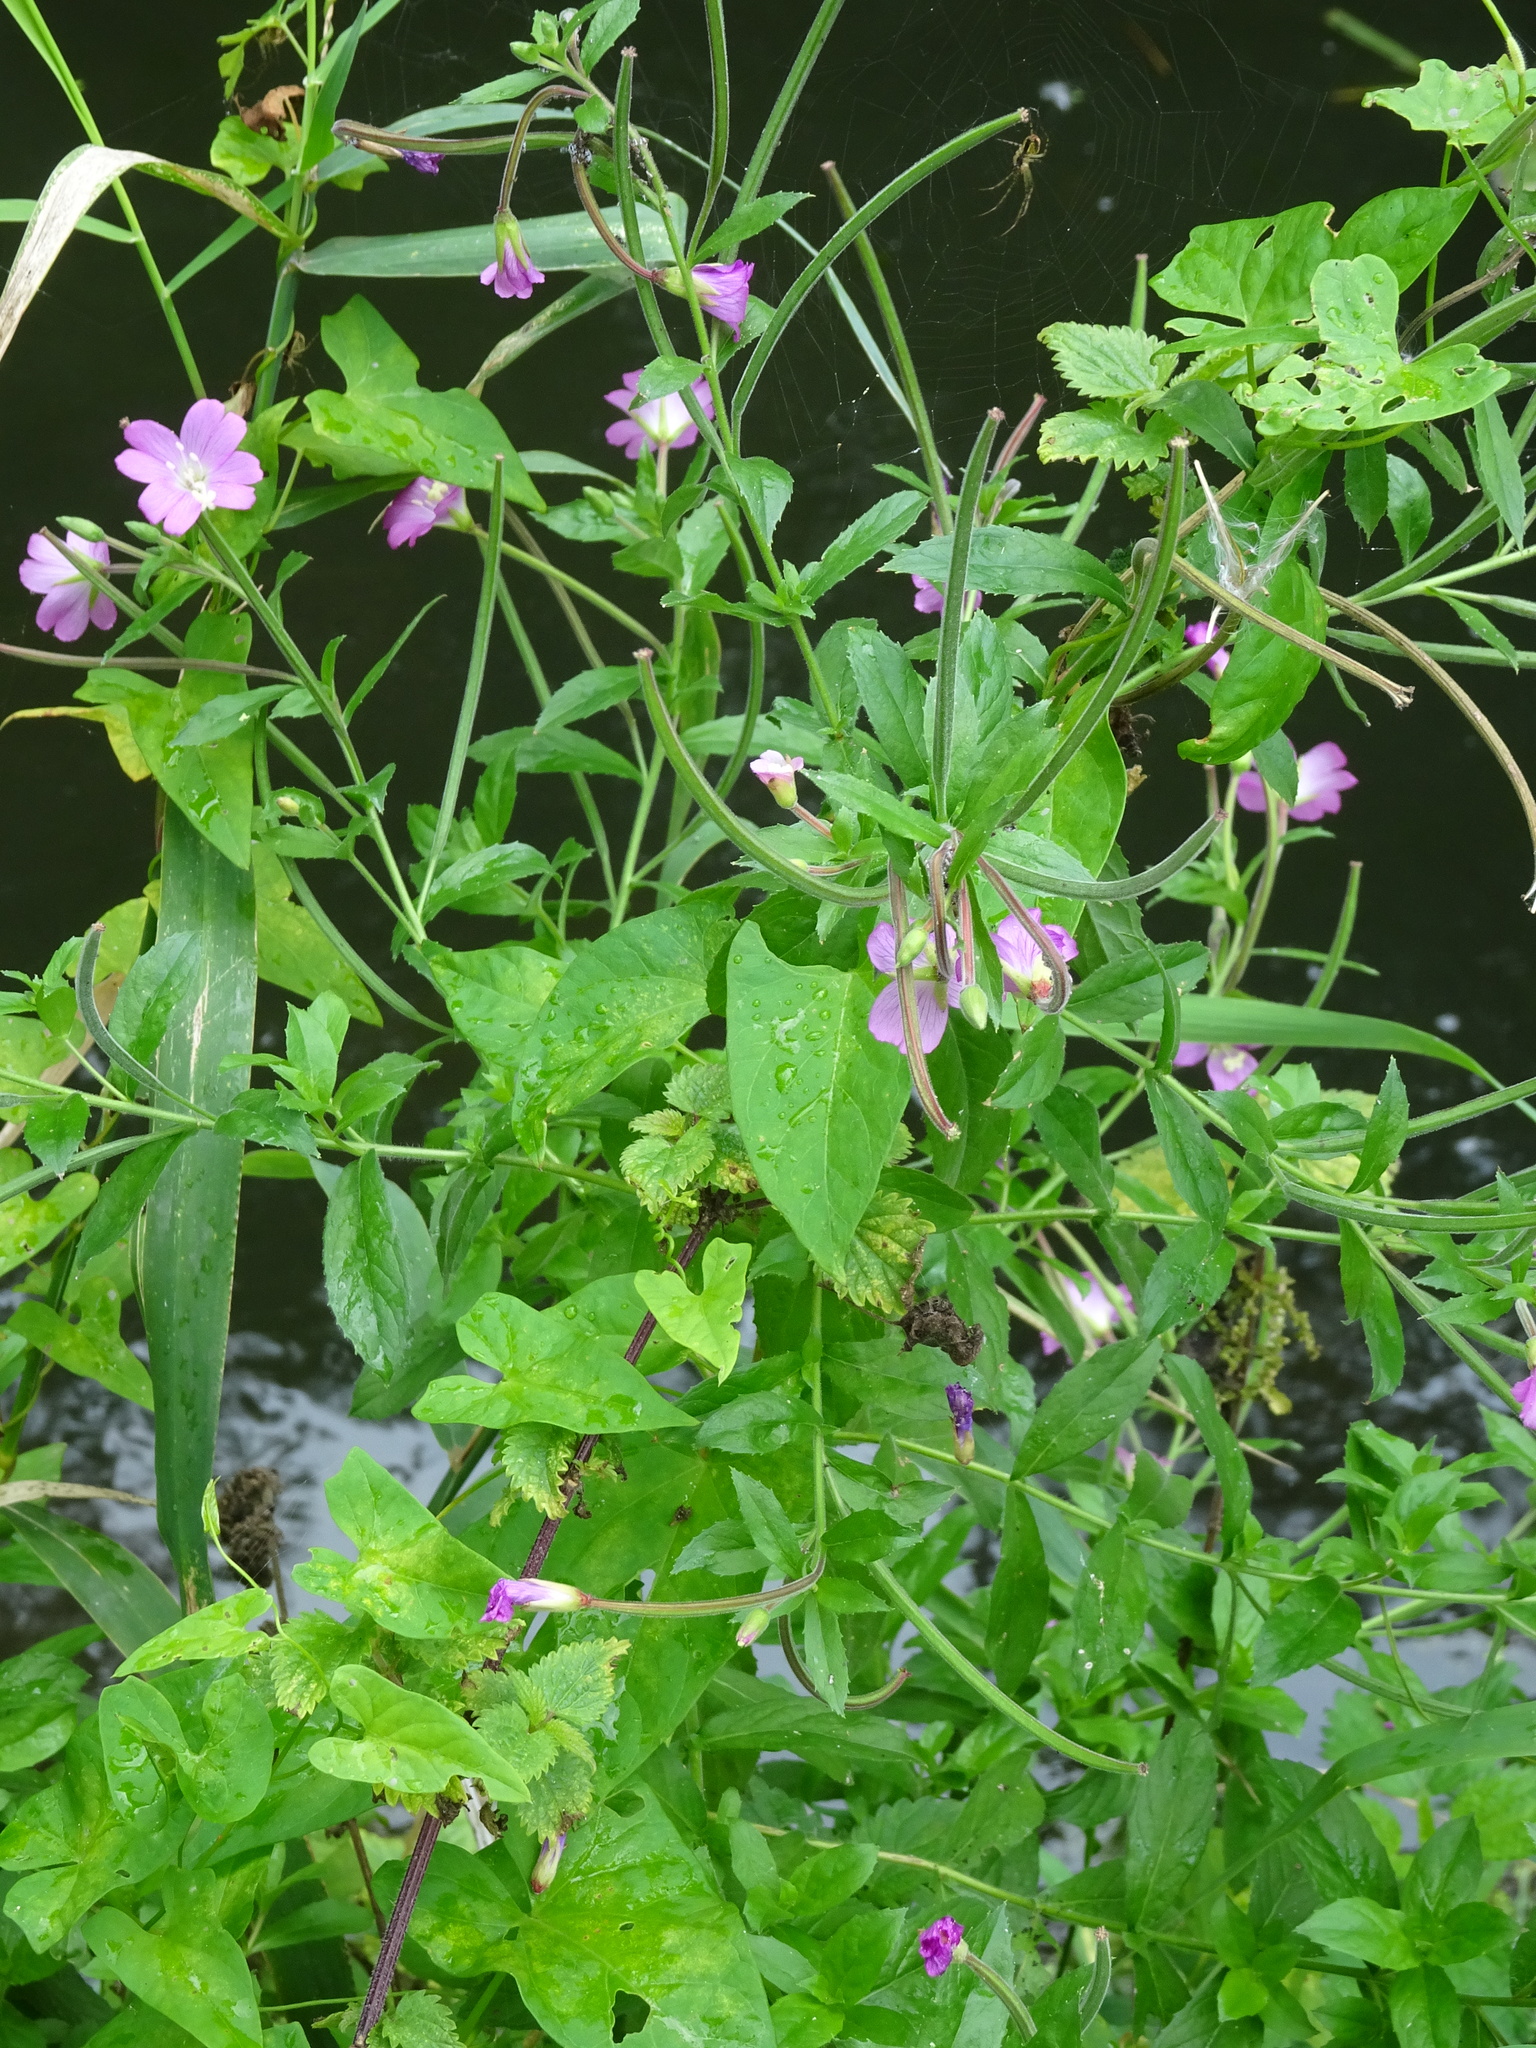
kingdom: Plantae
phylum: Tracheophyta
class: Magnoliopsida
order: Myrtales
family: Onagraceae
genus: Epilobium
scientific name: Epilobium hirsutum
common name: Great willowherb
